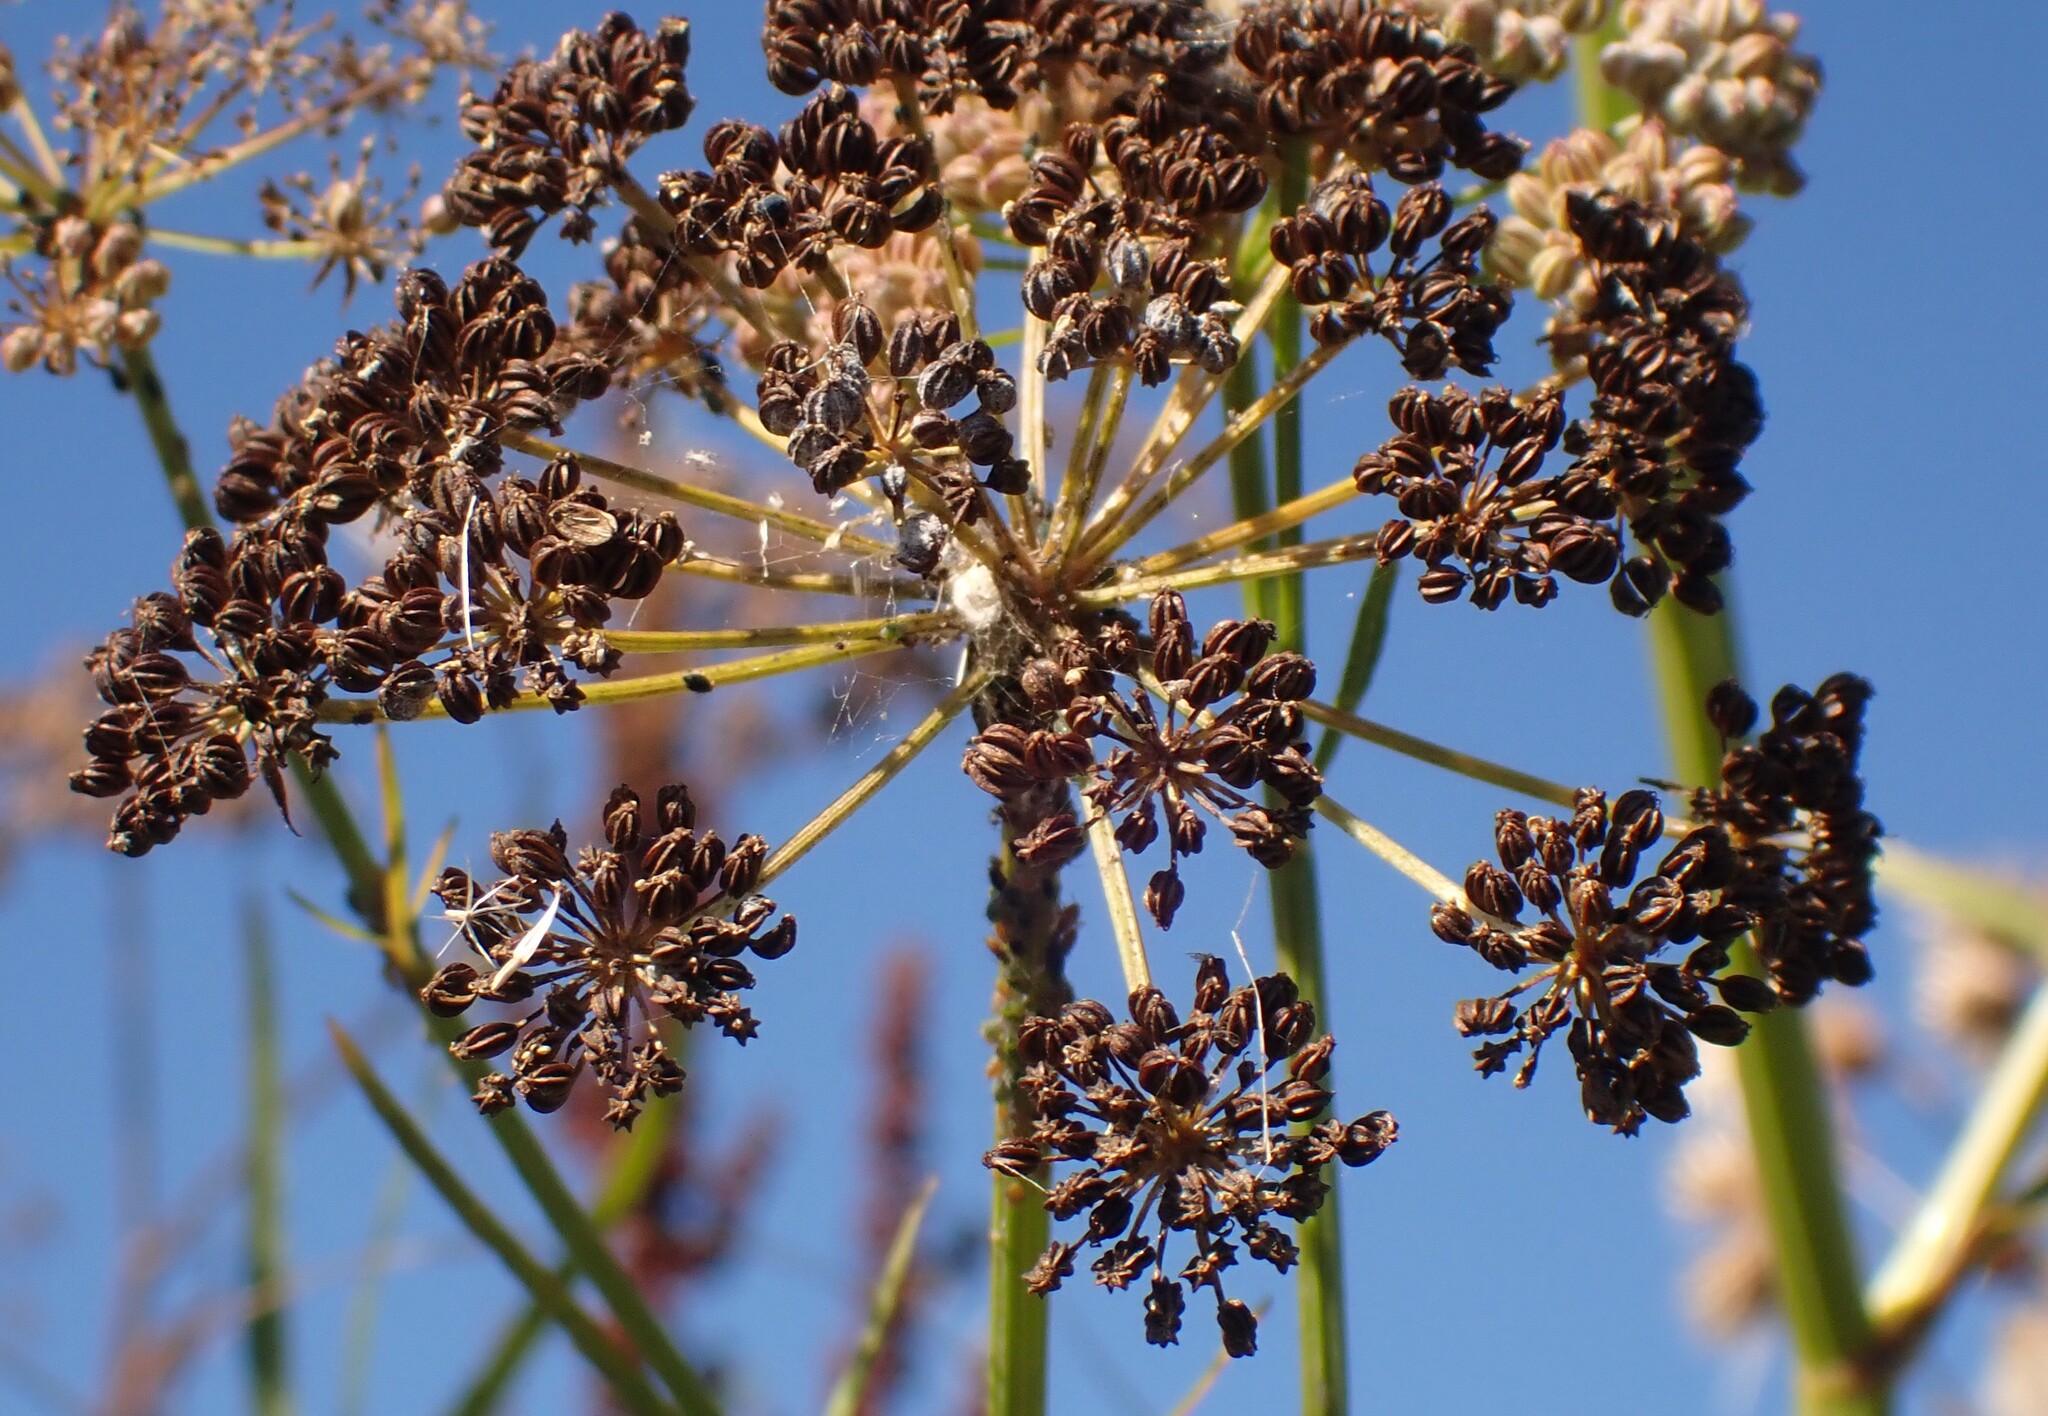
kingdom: Plantae
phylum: Tracheophyta
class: Magnoliopsida
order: Apiales
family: Apiaceae
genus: Sium
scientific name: Sium suave
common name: Hemlock water-parsnip
